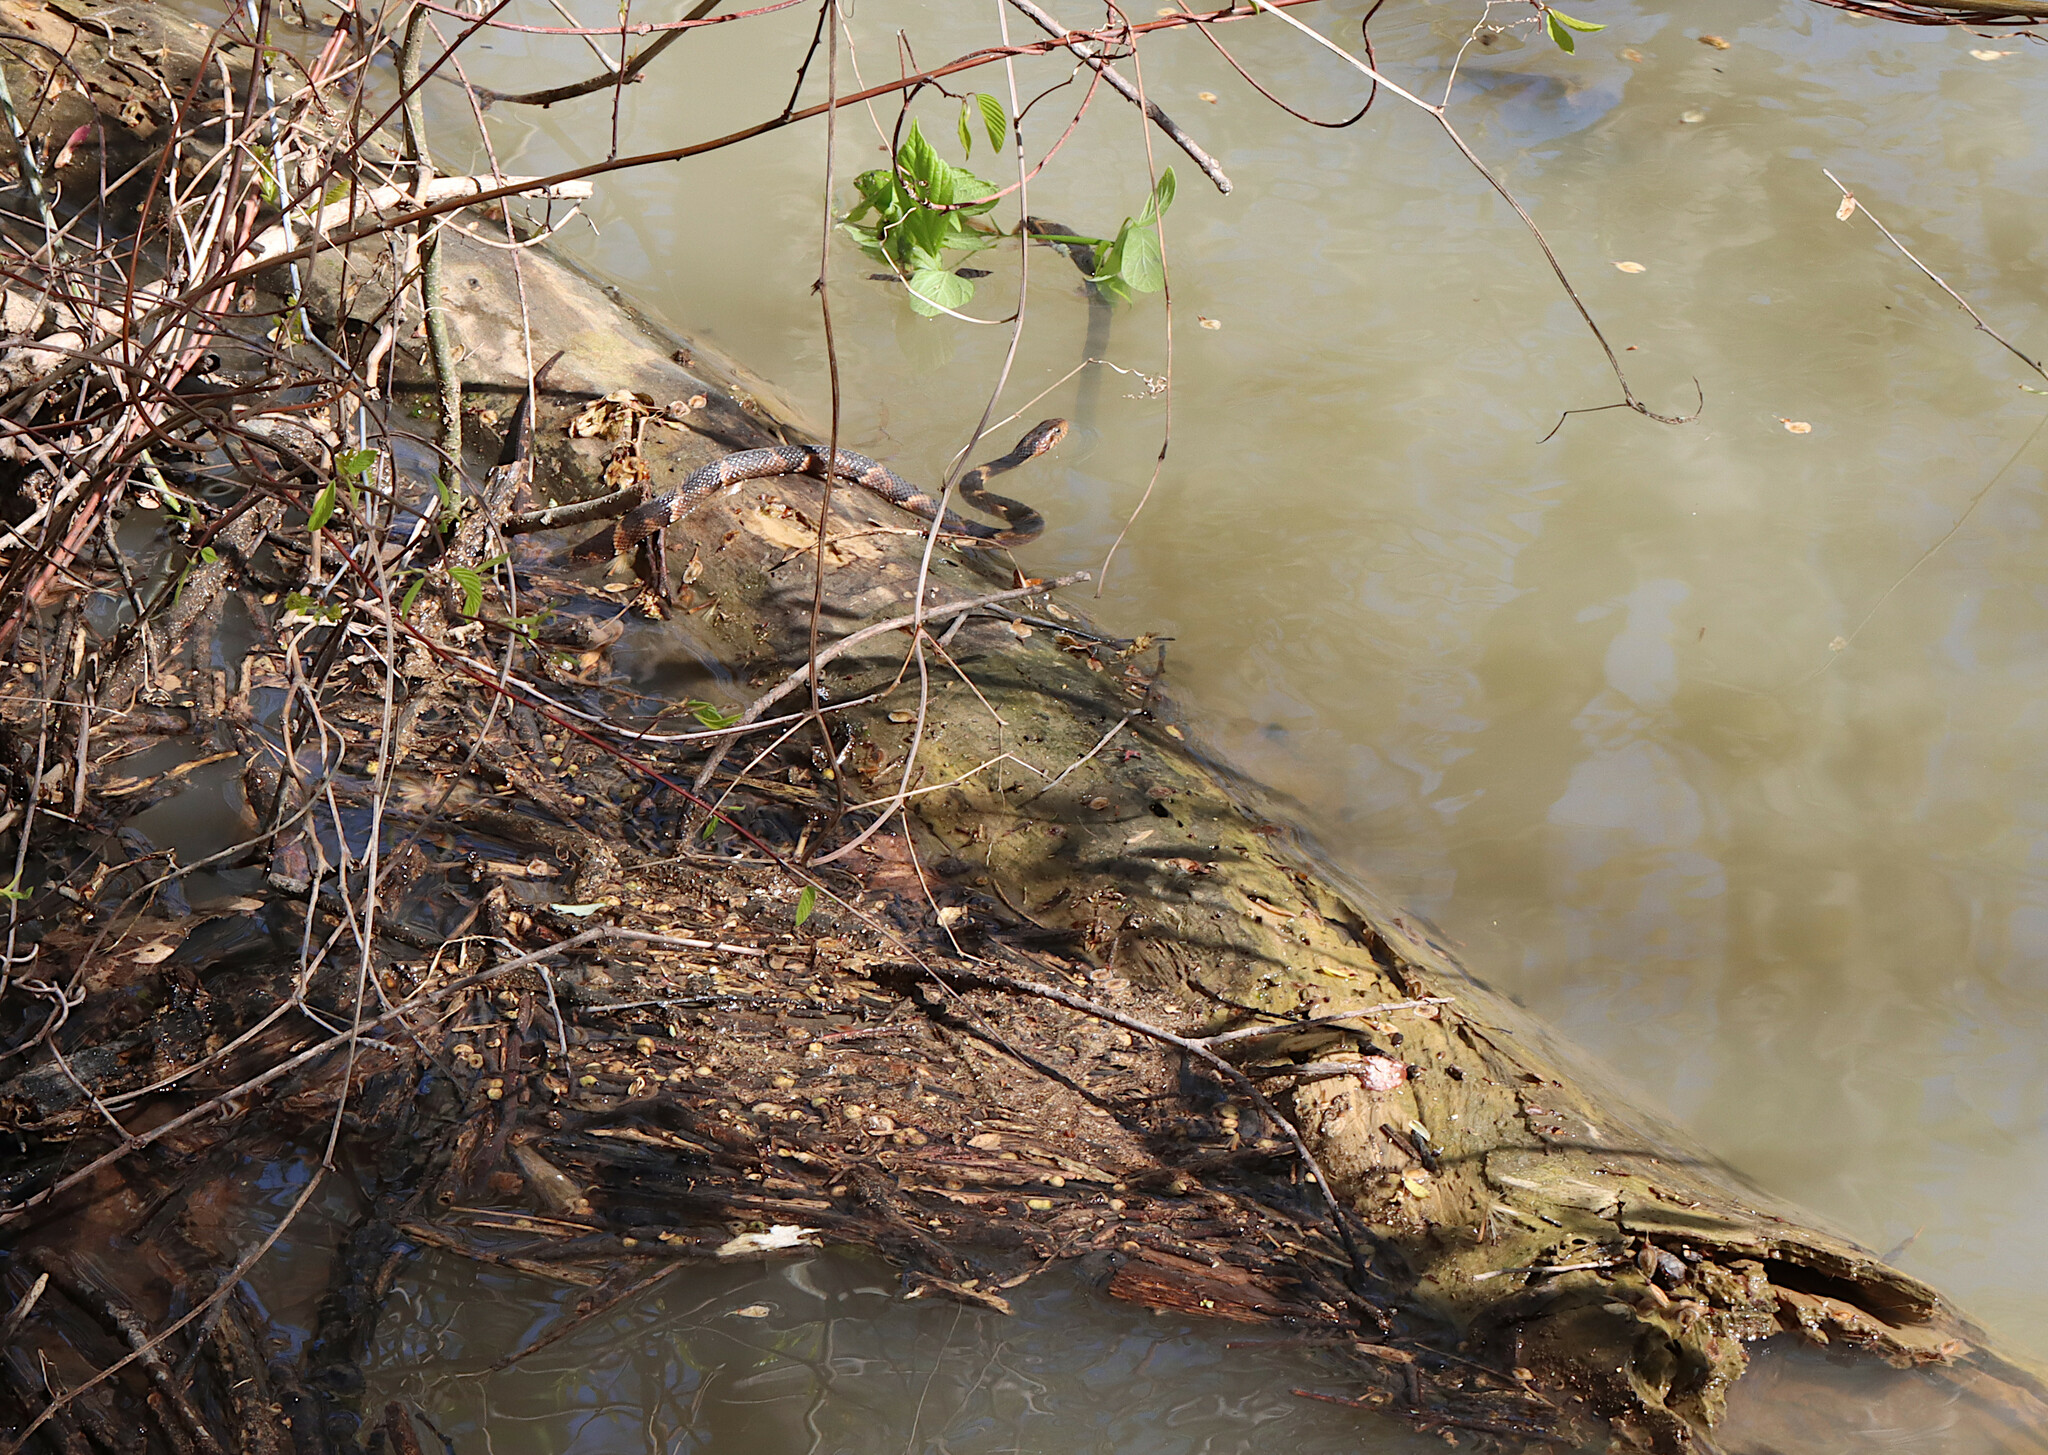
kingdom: Animalia
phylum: Chordata
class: Squamata
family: Colubridae
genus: Nerodia
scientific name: Nerodia fasciata
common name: Southern water snake
